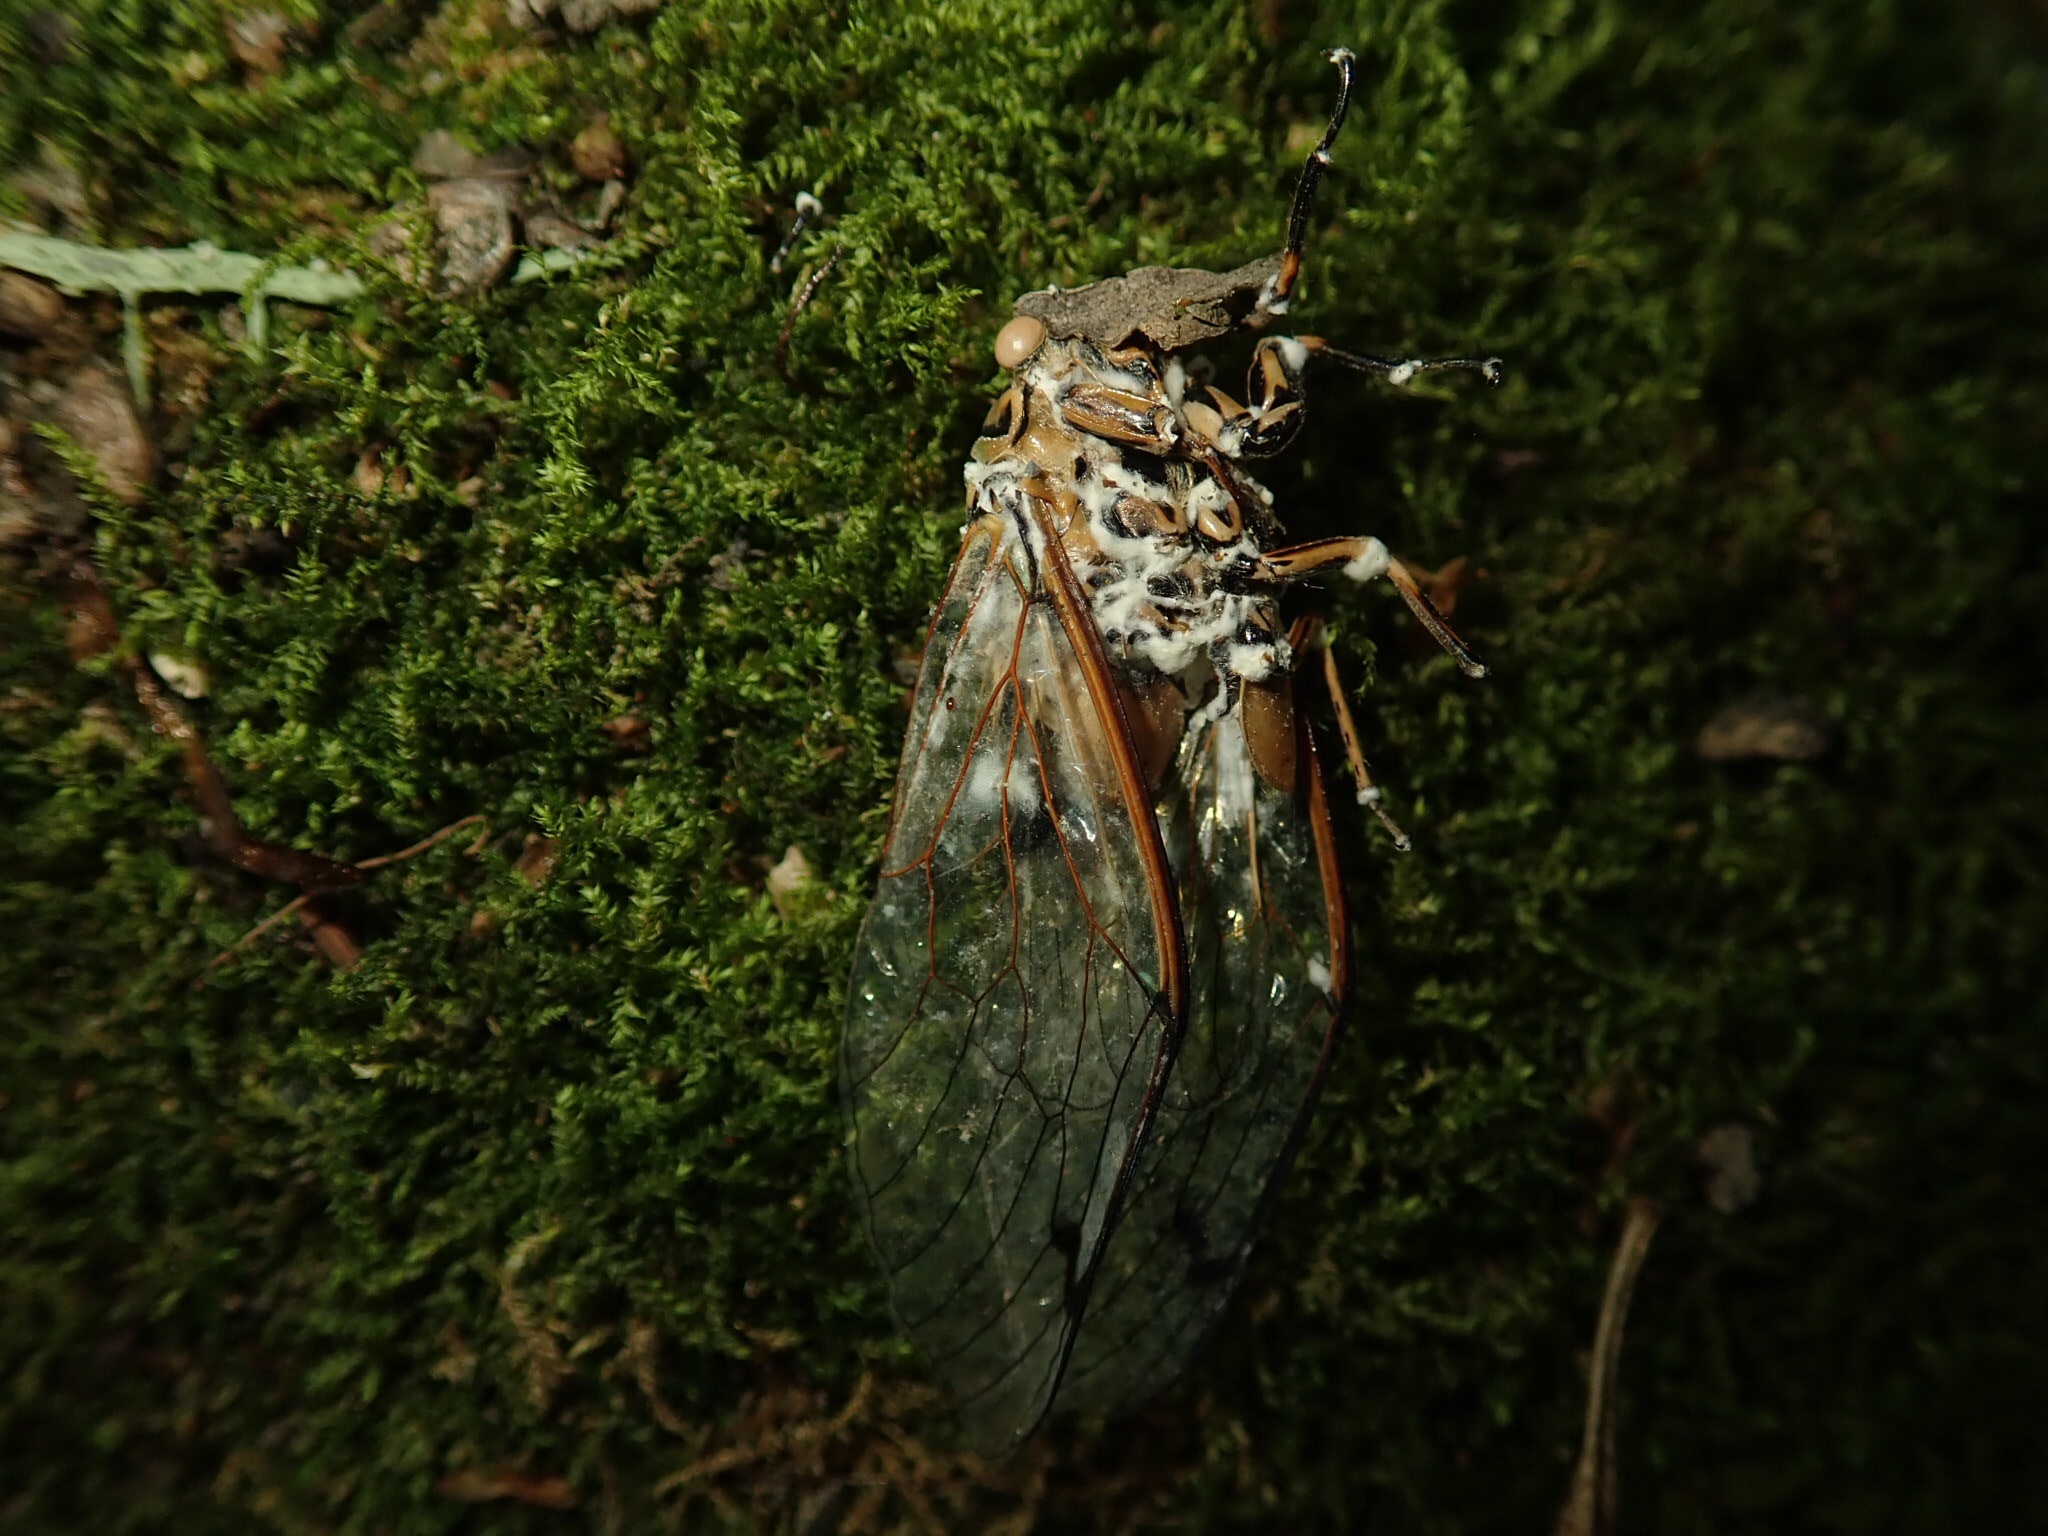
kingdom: Fungi
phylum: Ascomycota
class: Sordariomycetes
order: Hypocreales
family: Cordycipitaceae
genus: Beauveria
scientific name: Beauveria bassiana
